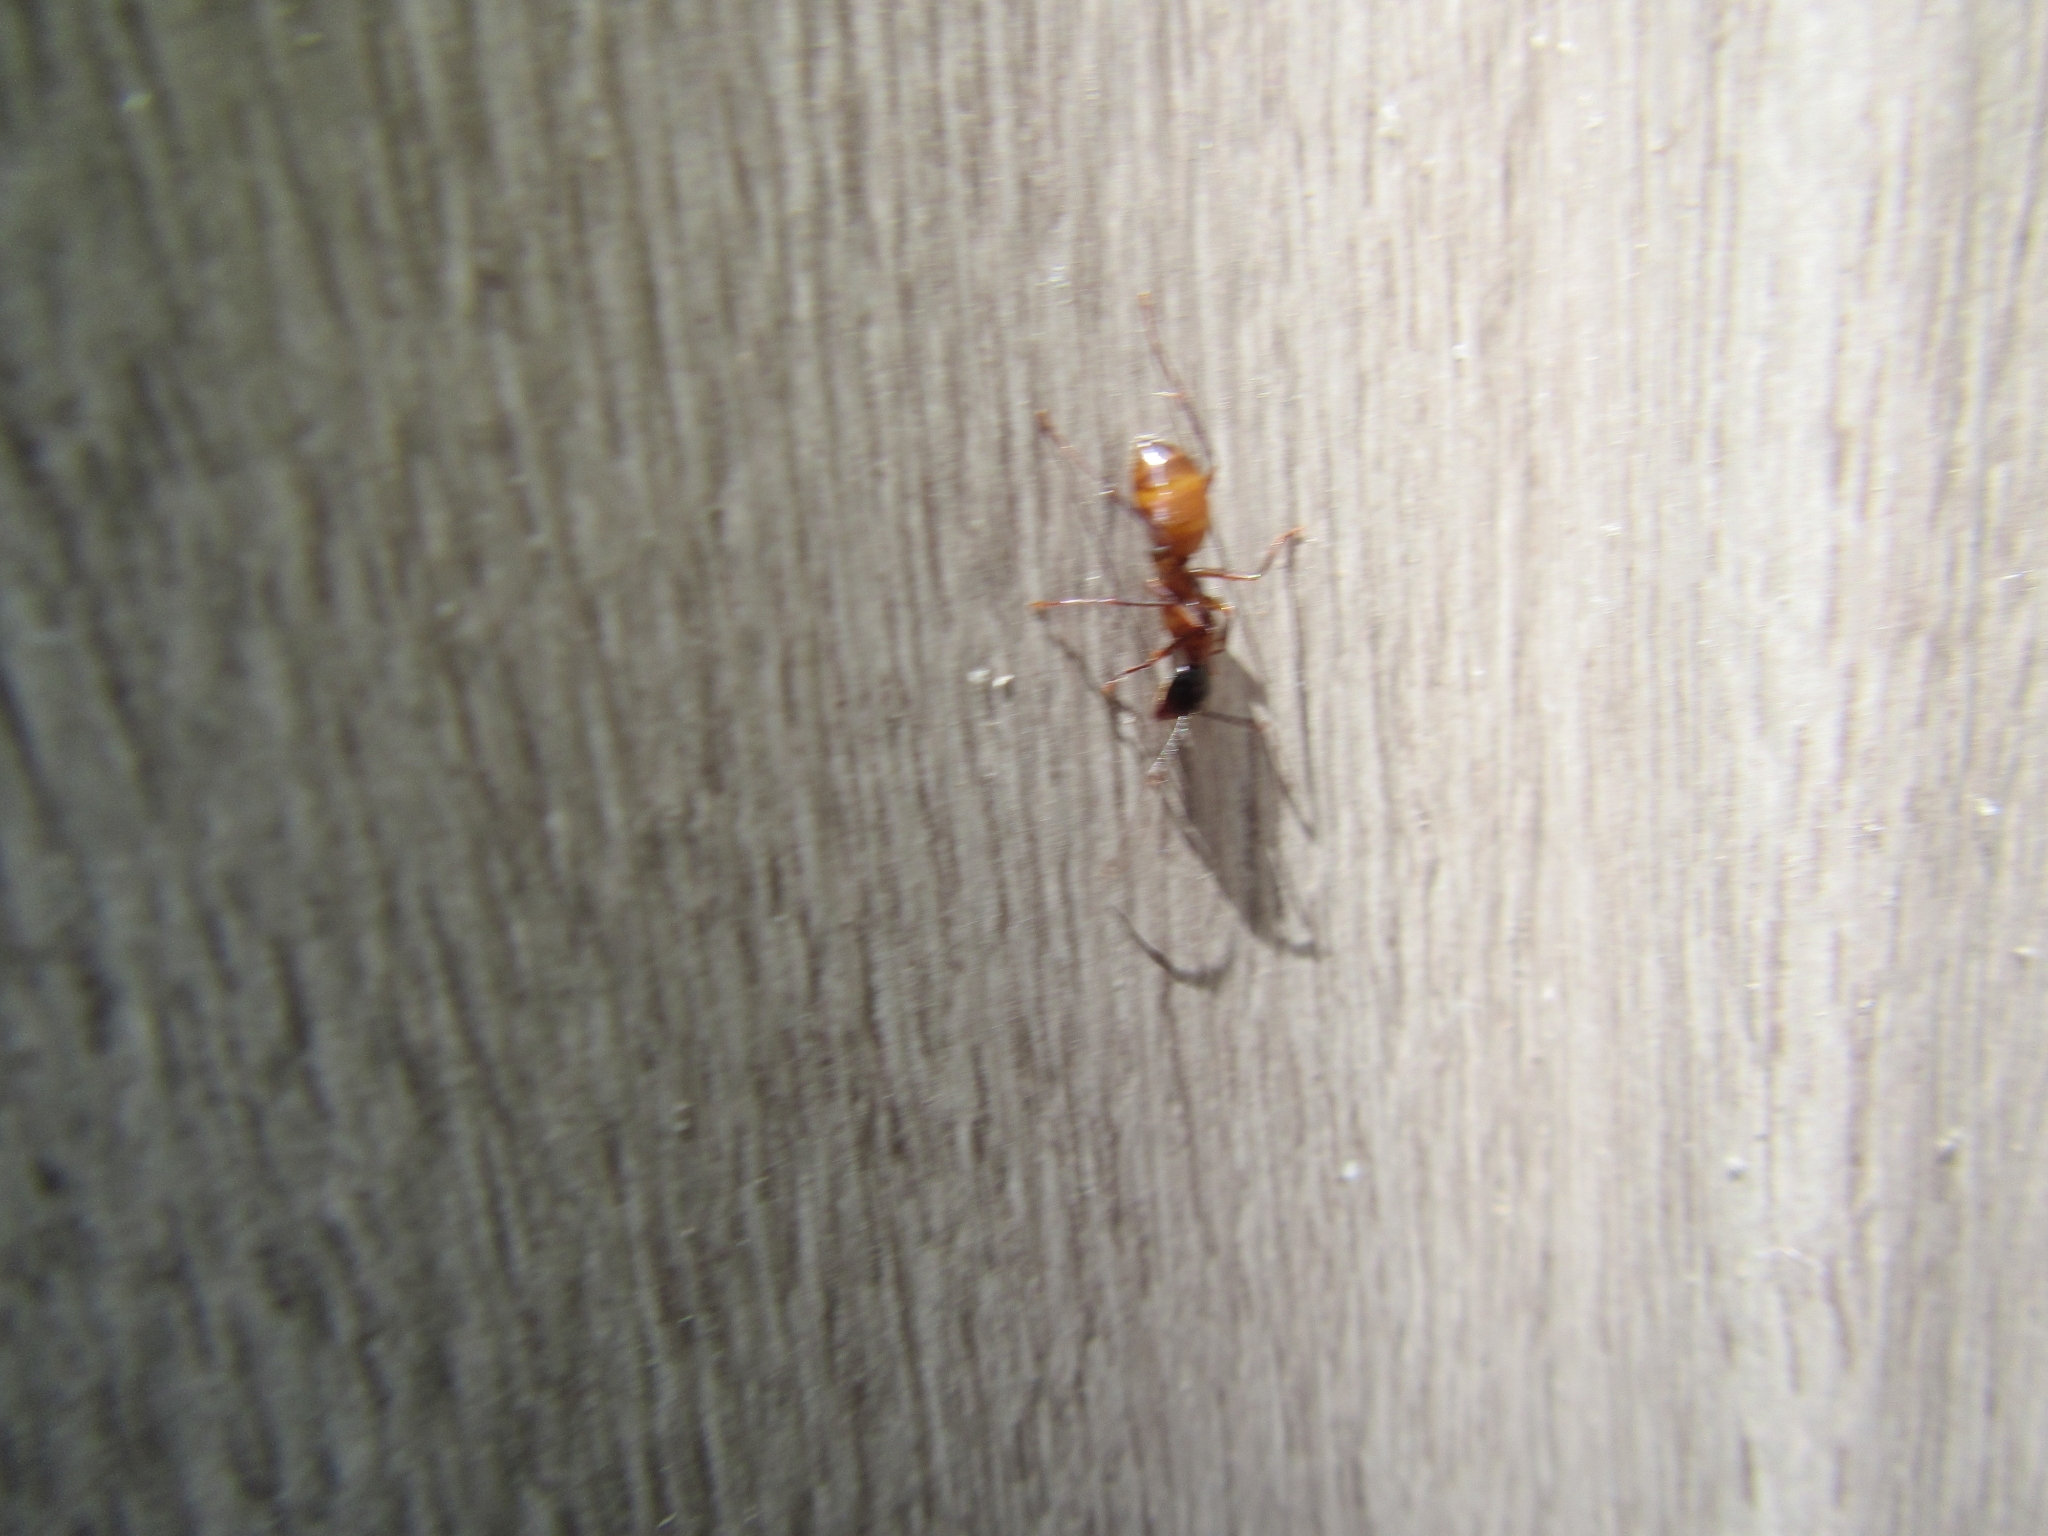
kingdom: Animalia
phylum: Arthropoda
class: Insecta
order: Hymenoptera
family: Formicidae
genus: Camponotus
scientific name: Camponotus americanus
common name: American carpenter ant
